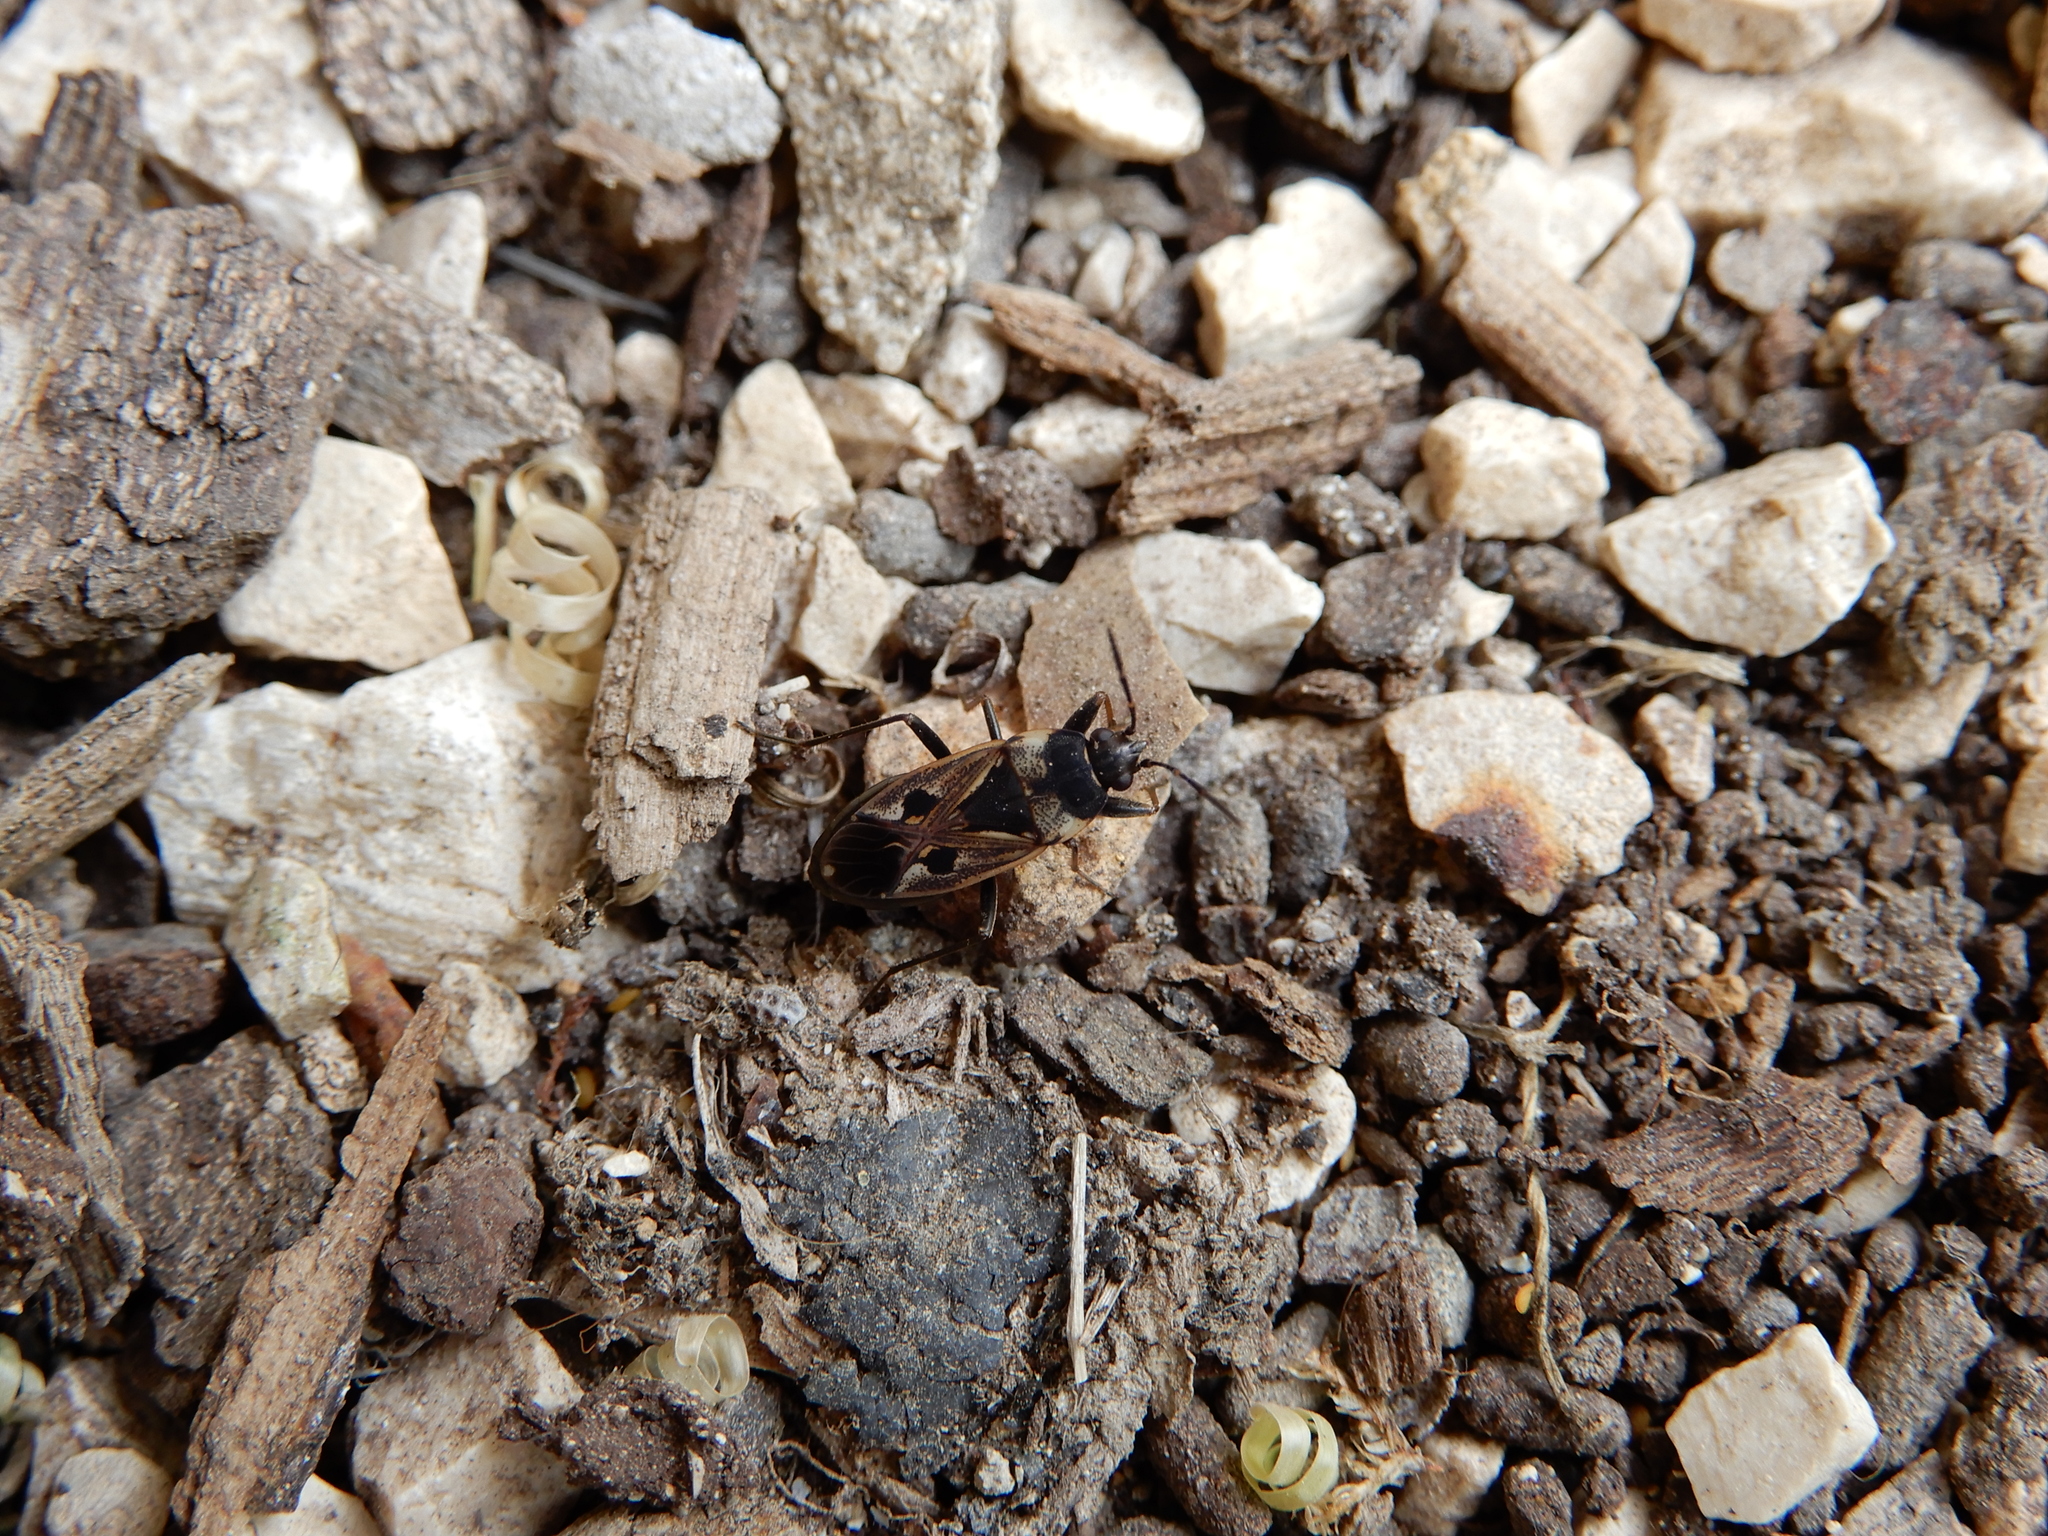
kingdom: Animalia
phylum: Arthropoda
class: Insecta
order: Hemiptera
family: Rhyparochromidae
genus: Rhyparochromus
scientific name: Rhyparochromus vulgaris
